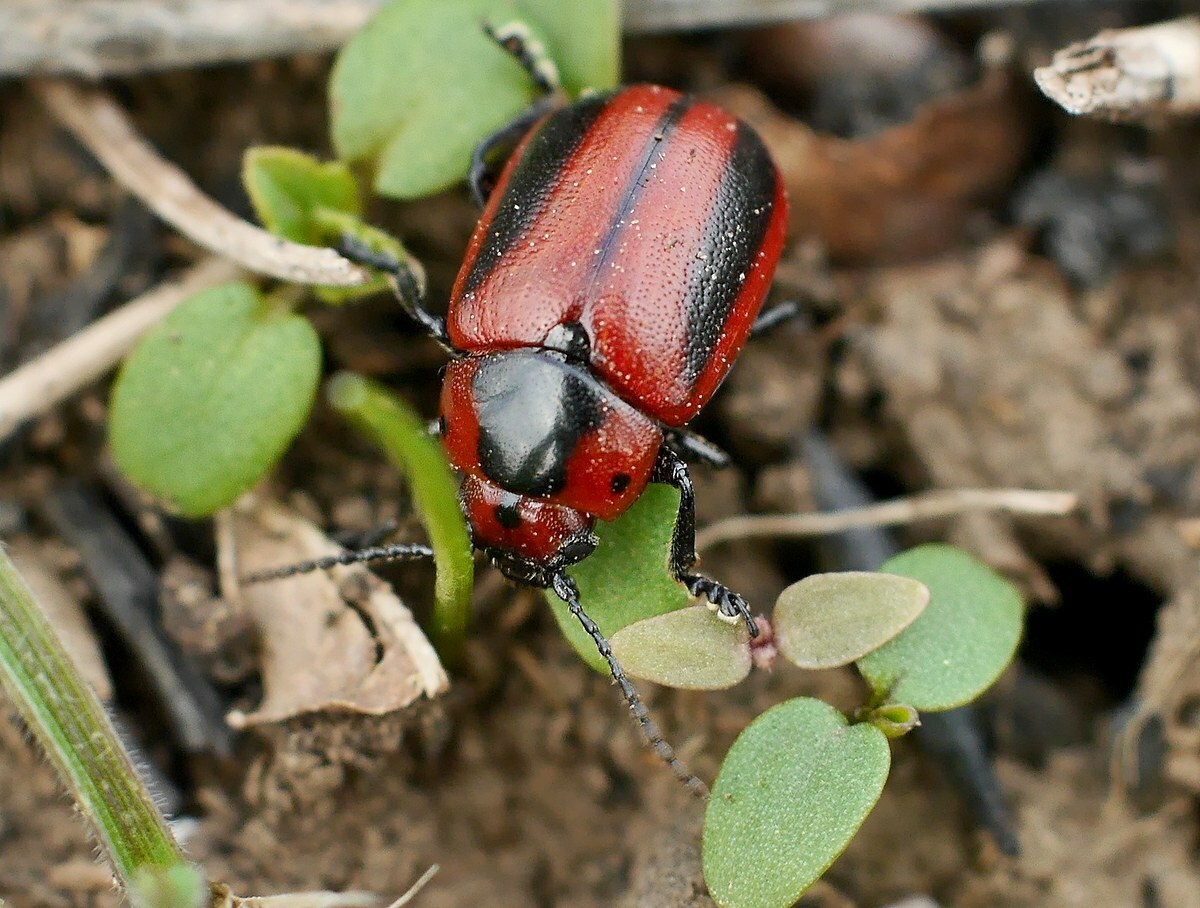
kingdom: Animalia
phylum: Arthropoda
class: Insecta
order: Coleoptera
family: Chrysomelidae
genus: Entomoscelis
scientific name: Entomoscelis adonidis
